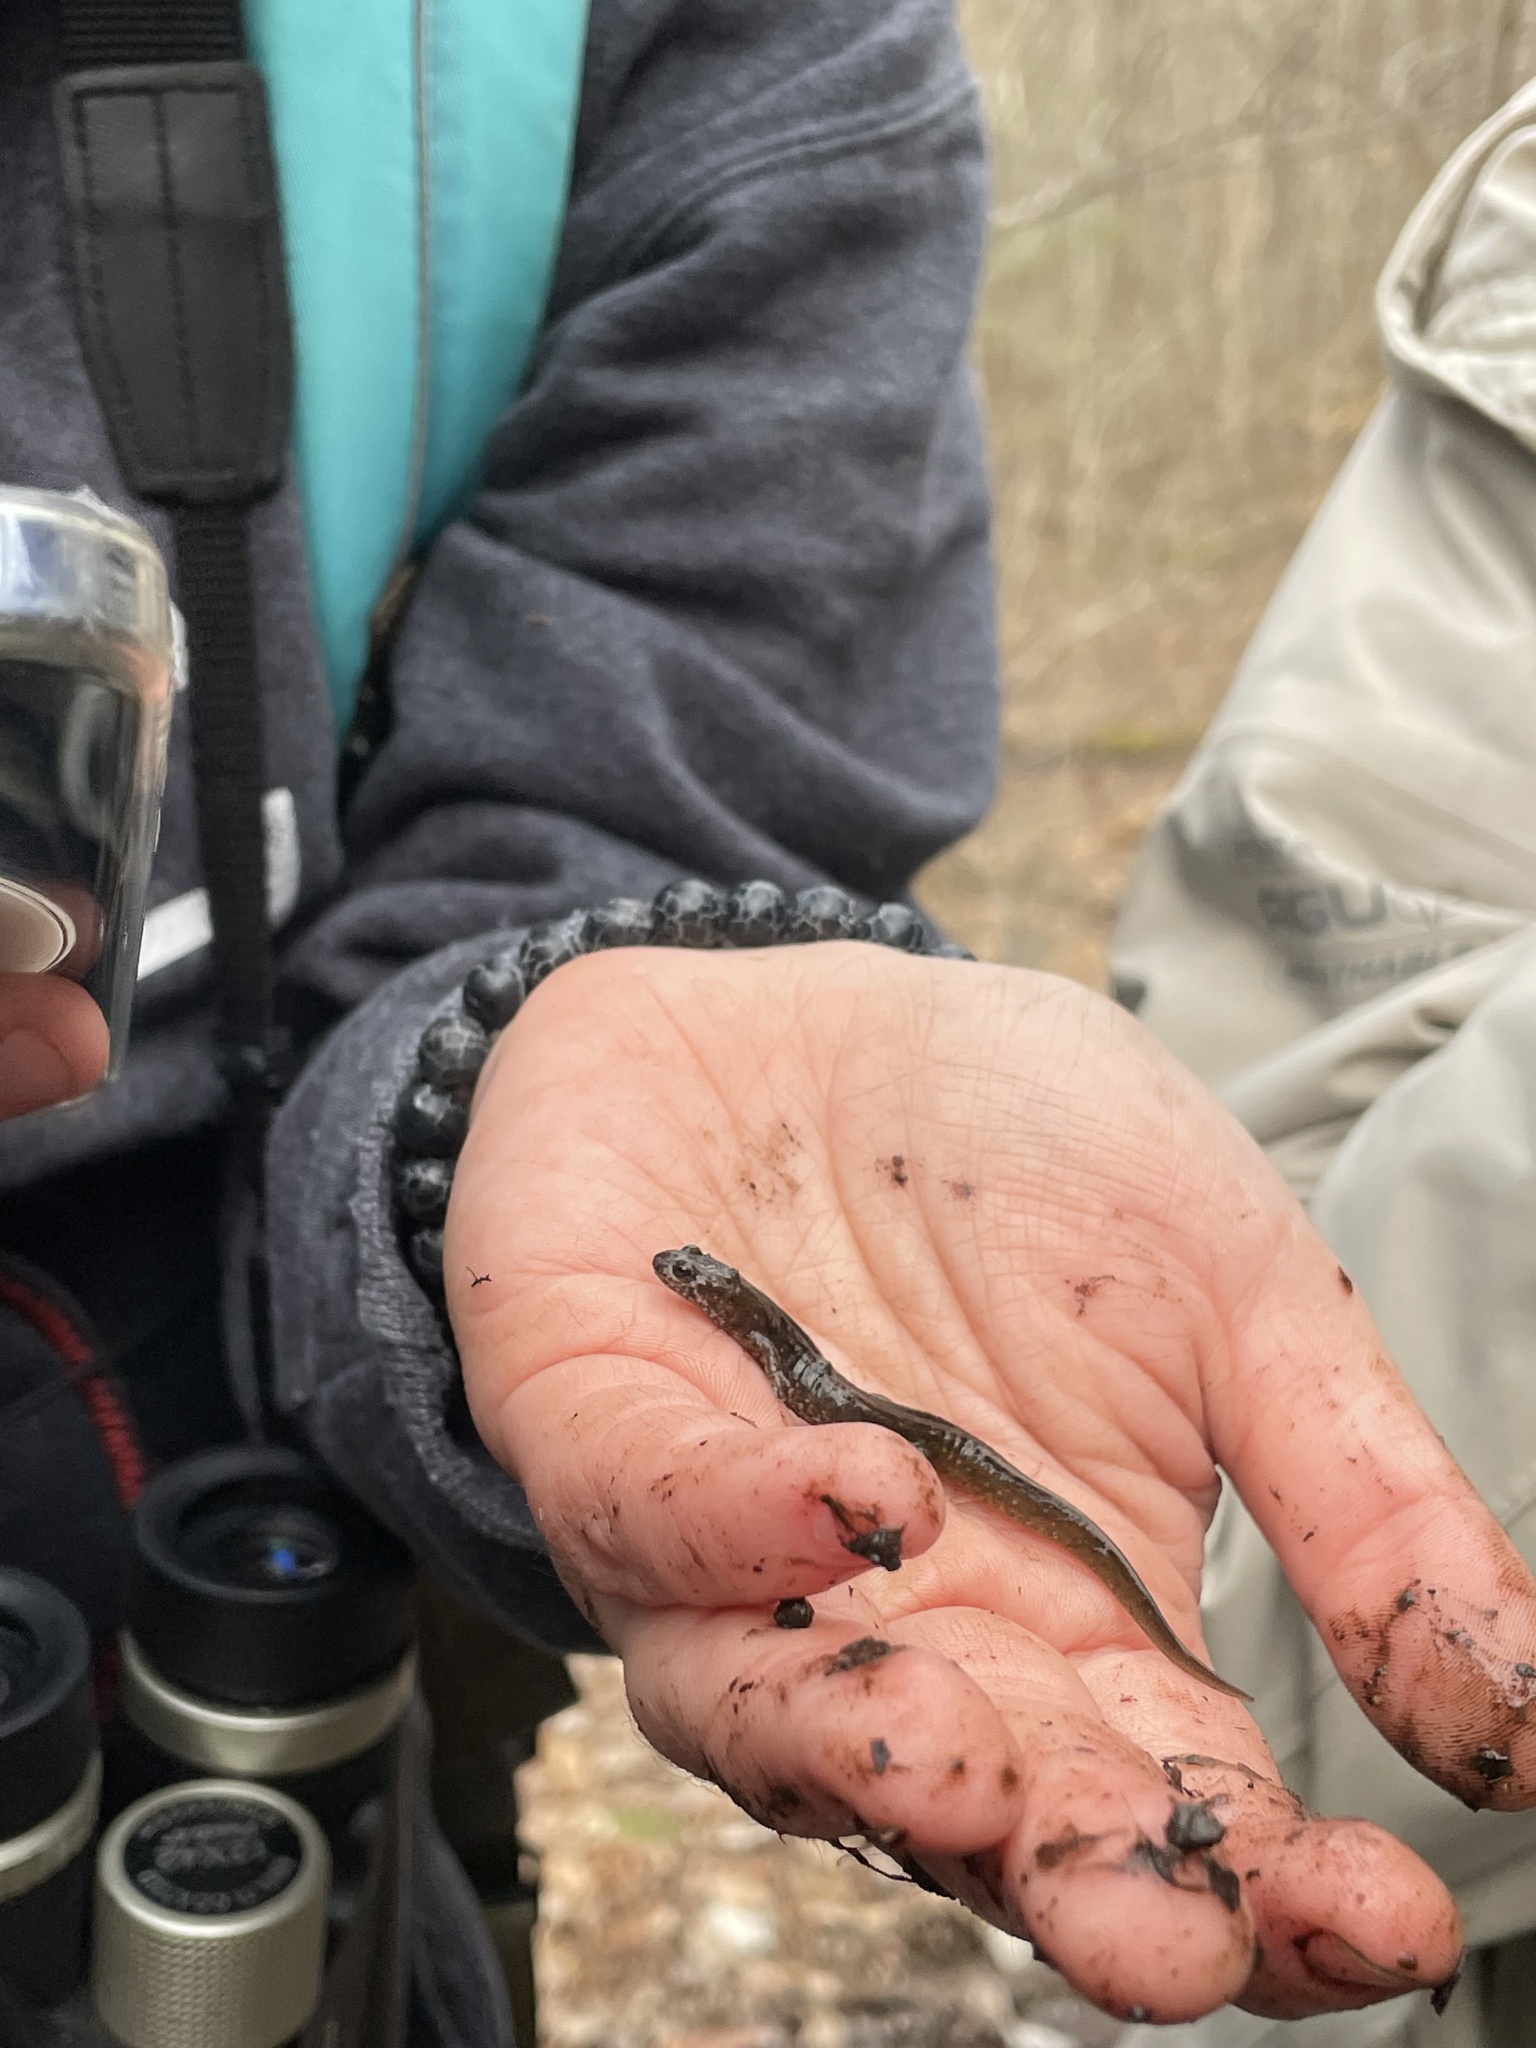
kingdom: Animalia
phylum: Chordata
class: Amphibia
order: Caudata
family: Plethodontidae
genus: Desmognathus
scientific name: Desmognathus fuscus
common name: Northern dusky salamander
